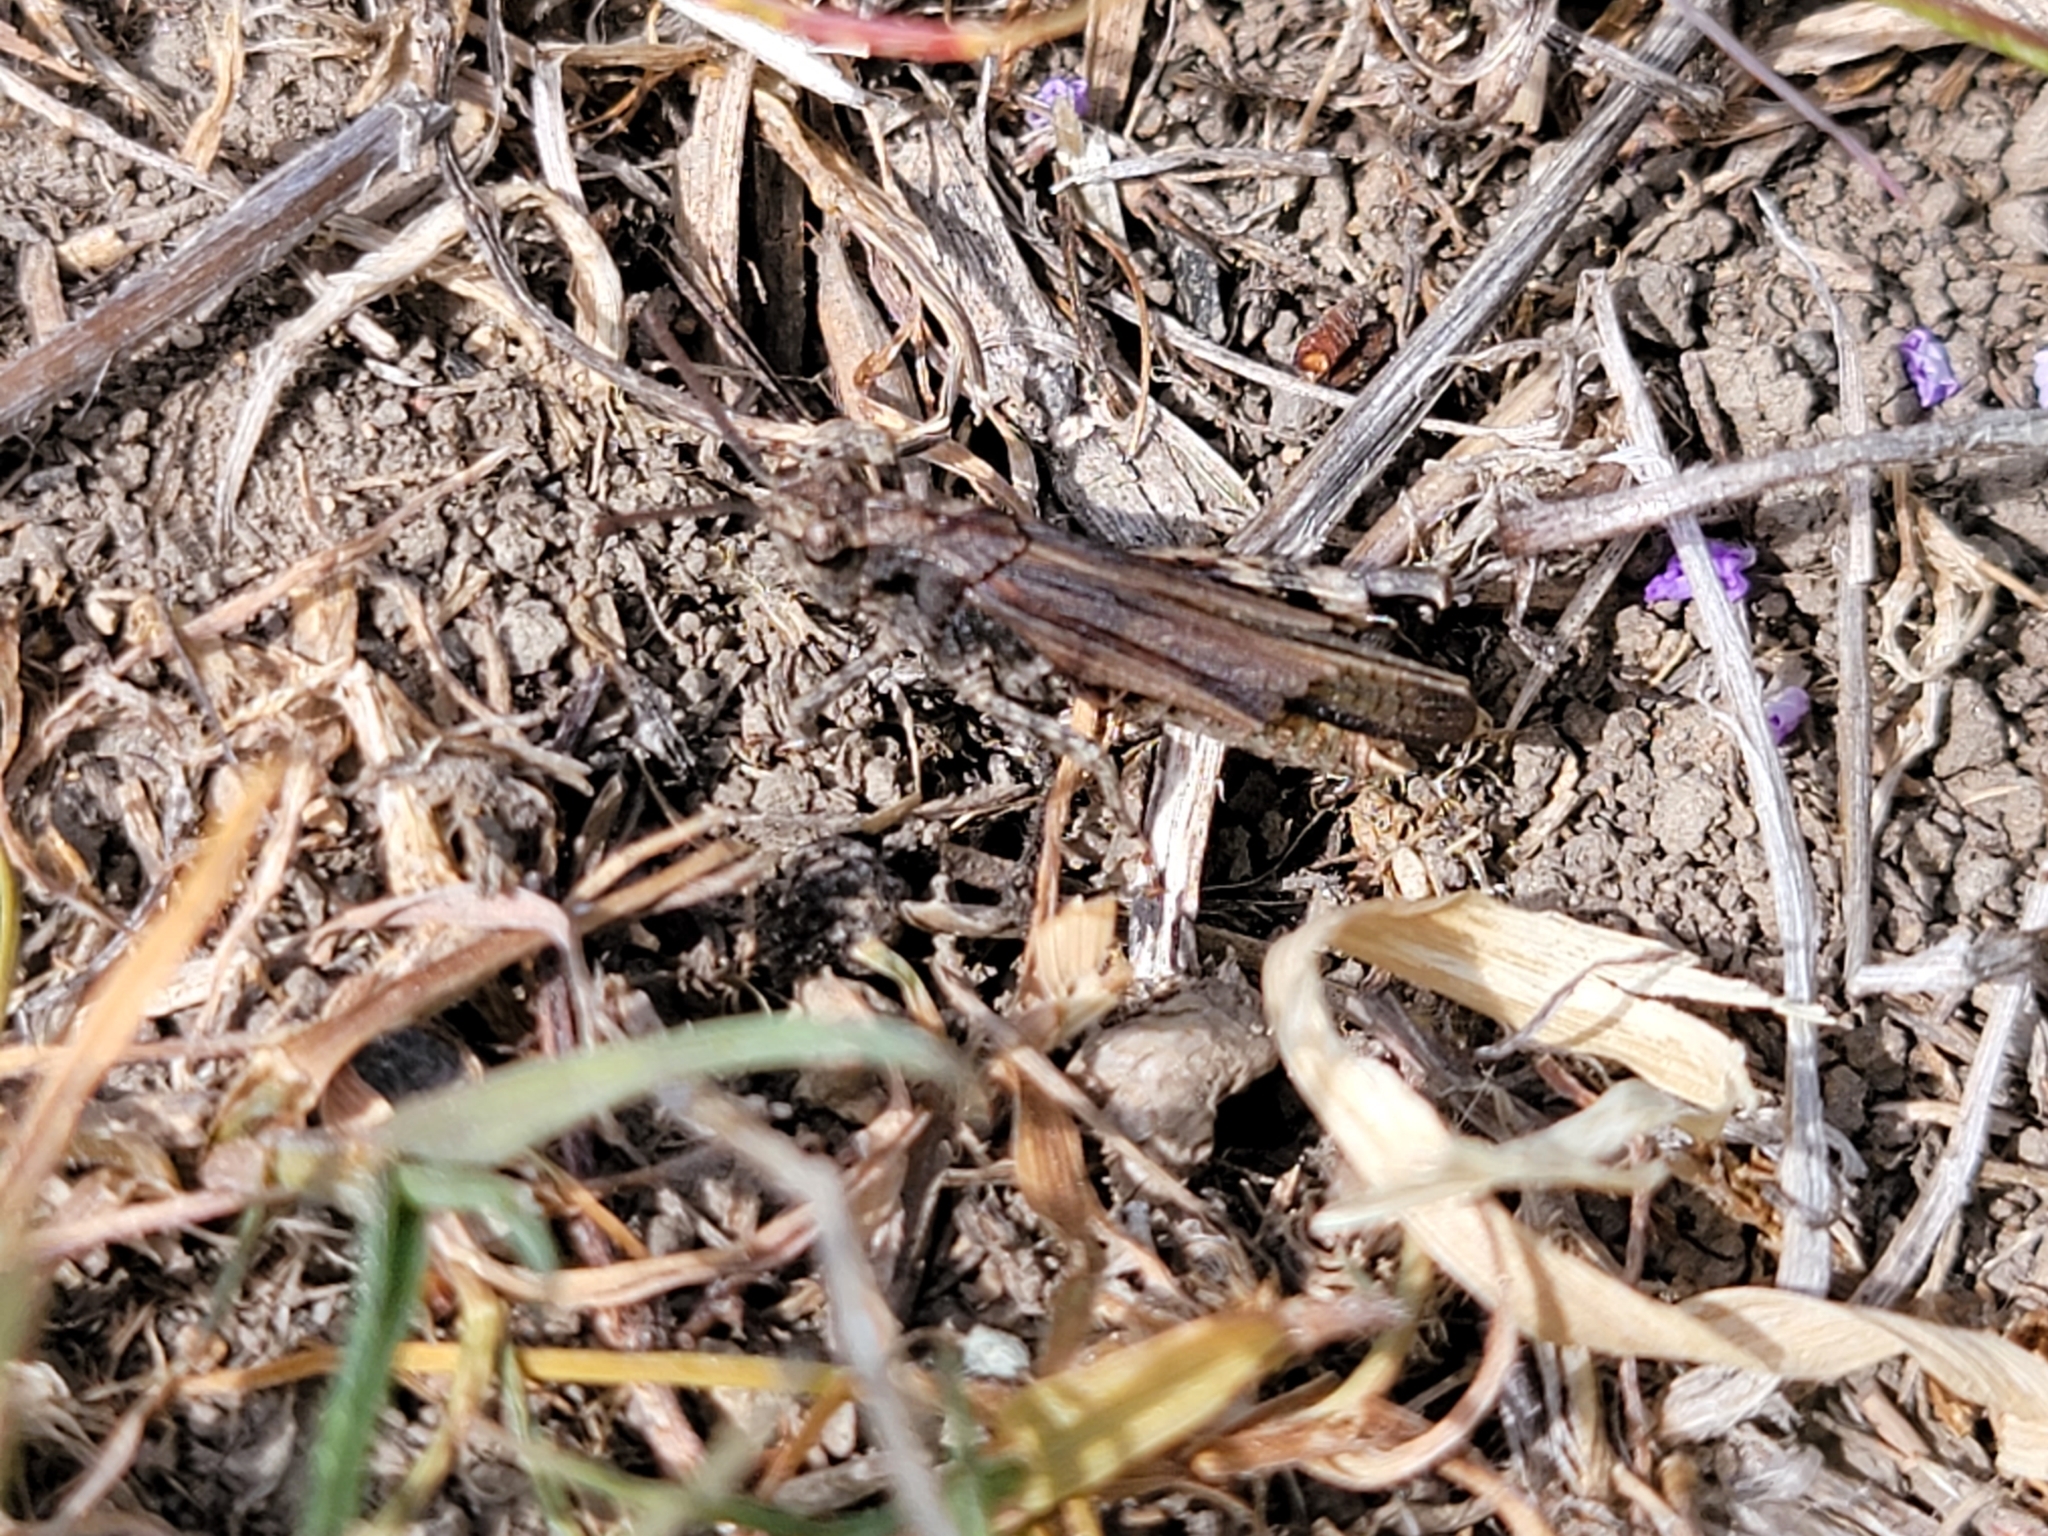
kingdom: Animalia
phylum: Arthropoda
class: Insecta
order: Orthoptera
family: Acrididae
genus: Chimarocephala
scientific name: Chimarocephala pacifica
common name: Painted meadow grasshopper
